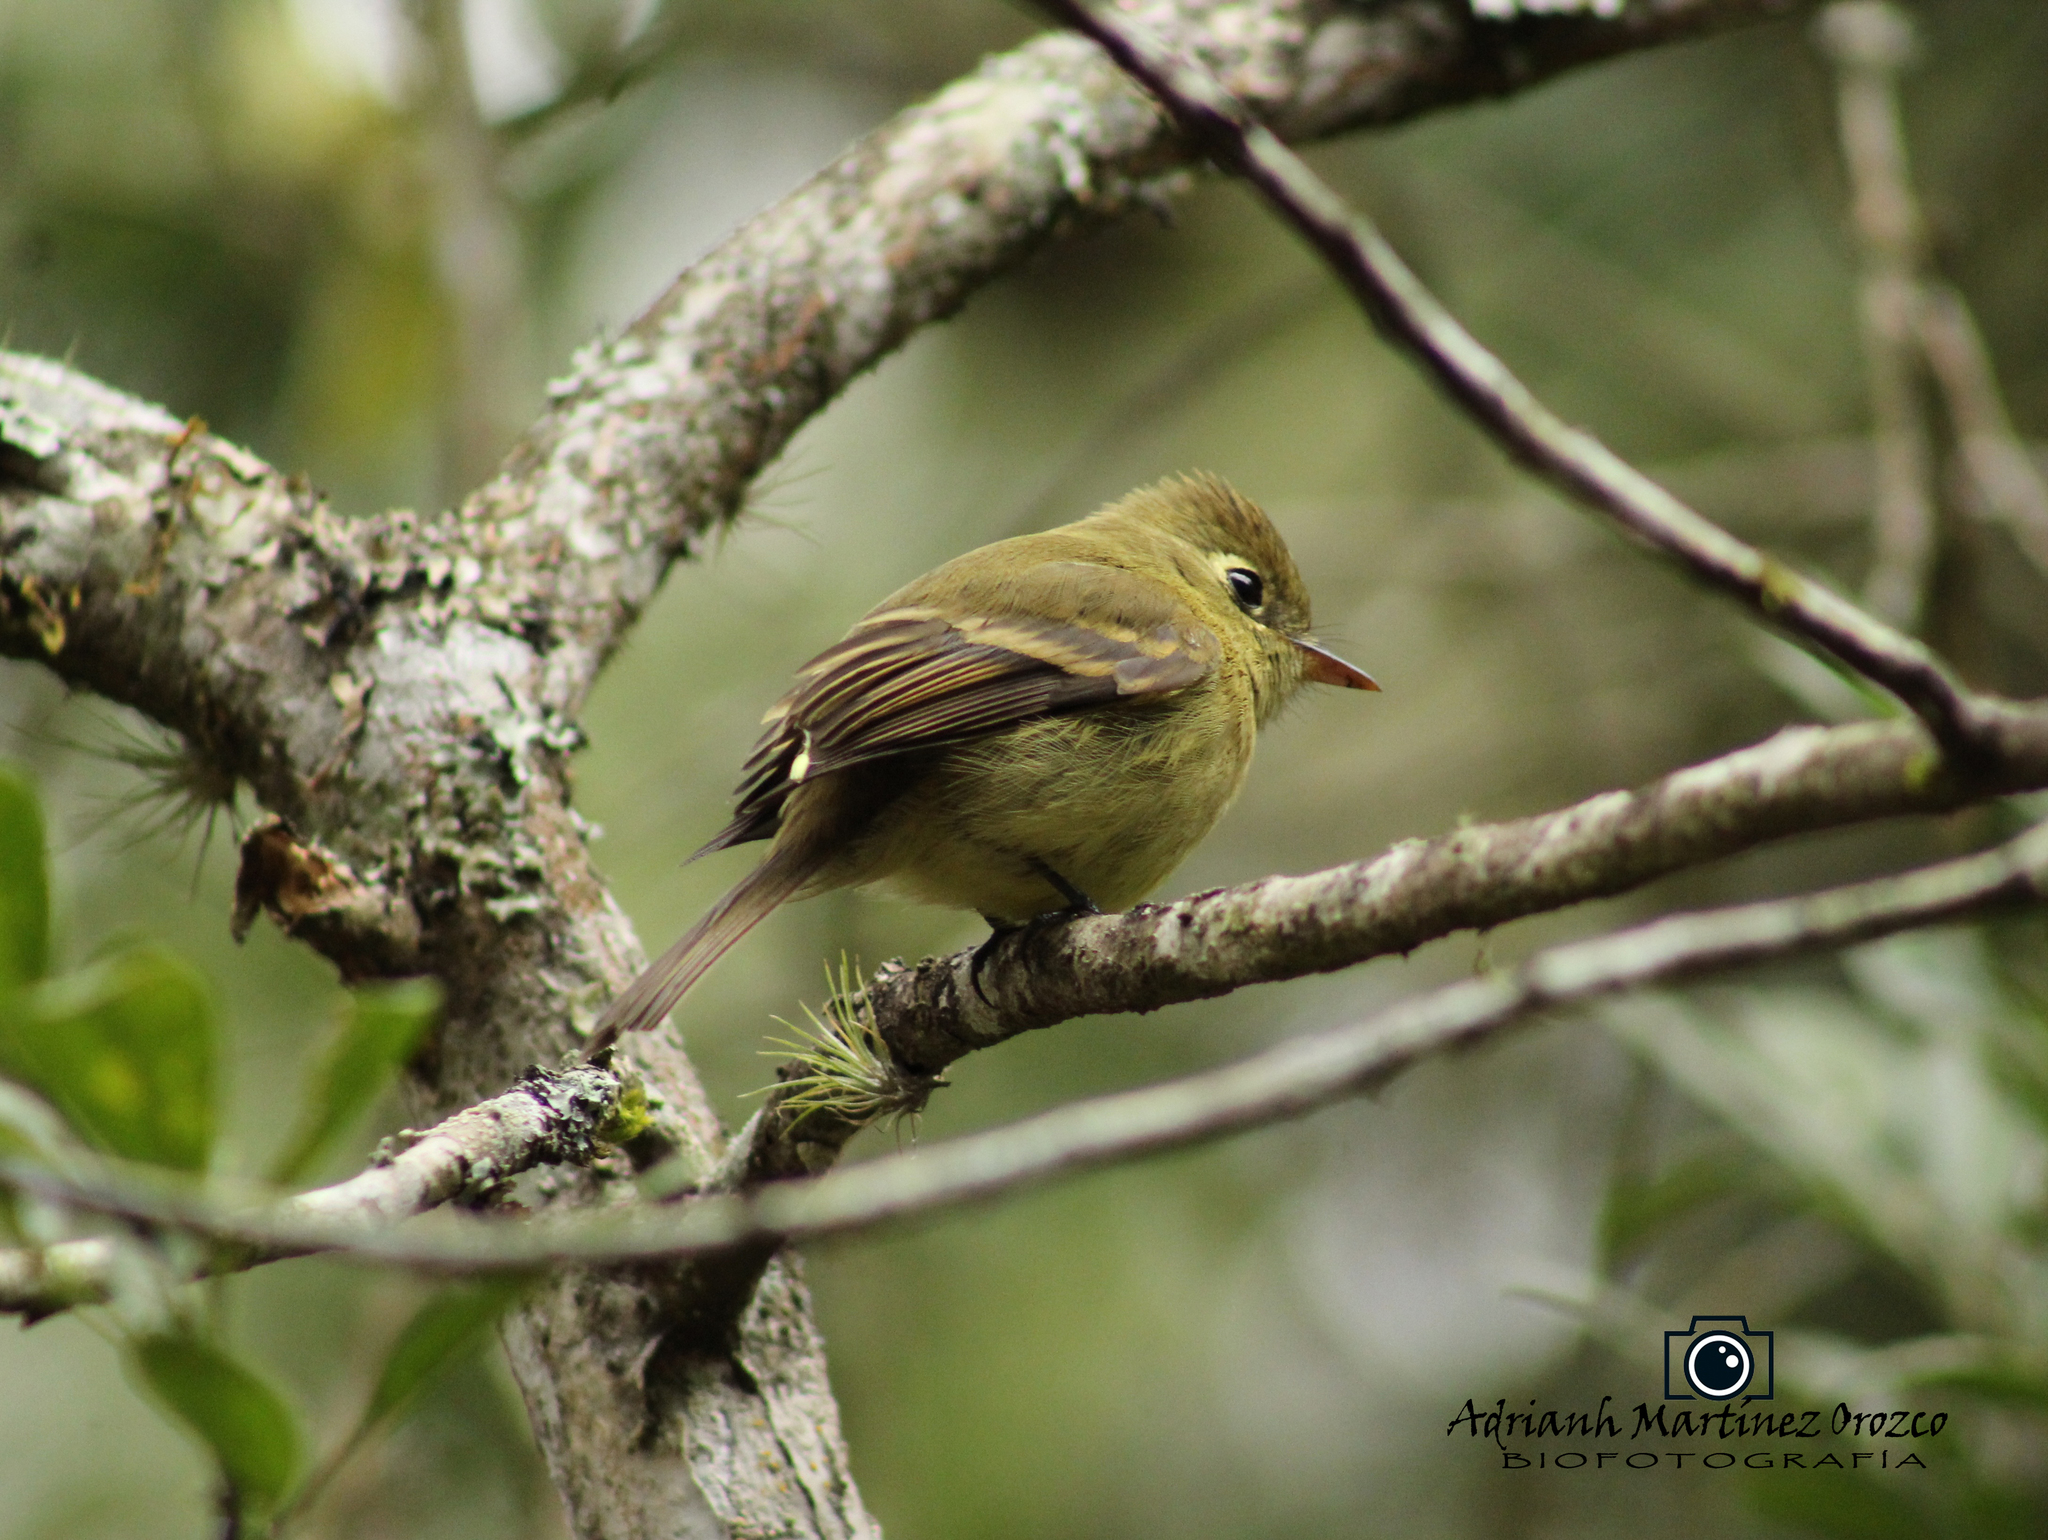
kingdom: Animalia
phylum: Chordata
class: Aves
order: Passeriformes
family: Tyrannidae
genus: Empidonax
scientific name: Empidonax difficilis
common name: Pacific-slope flycatcher
